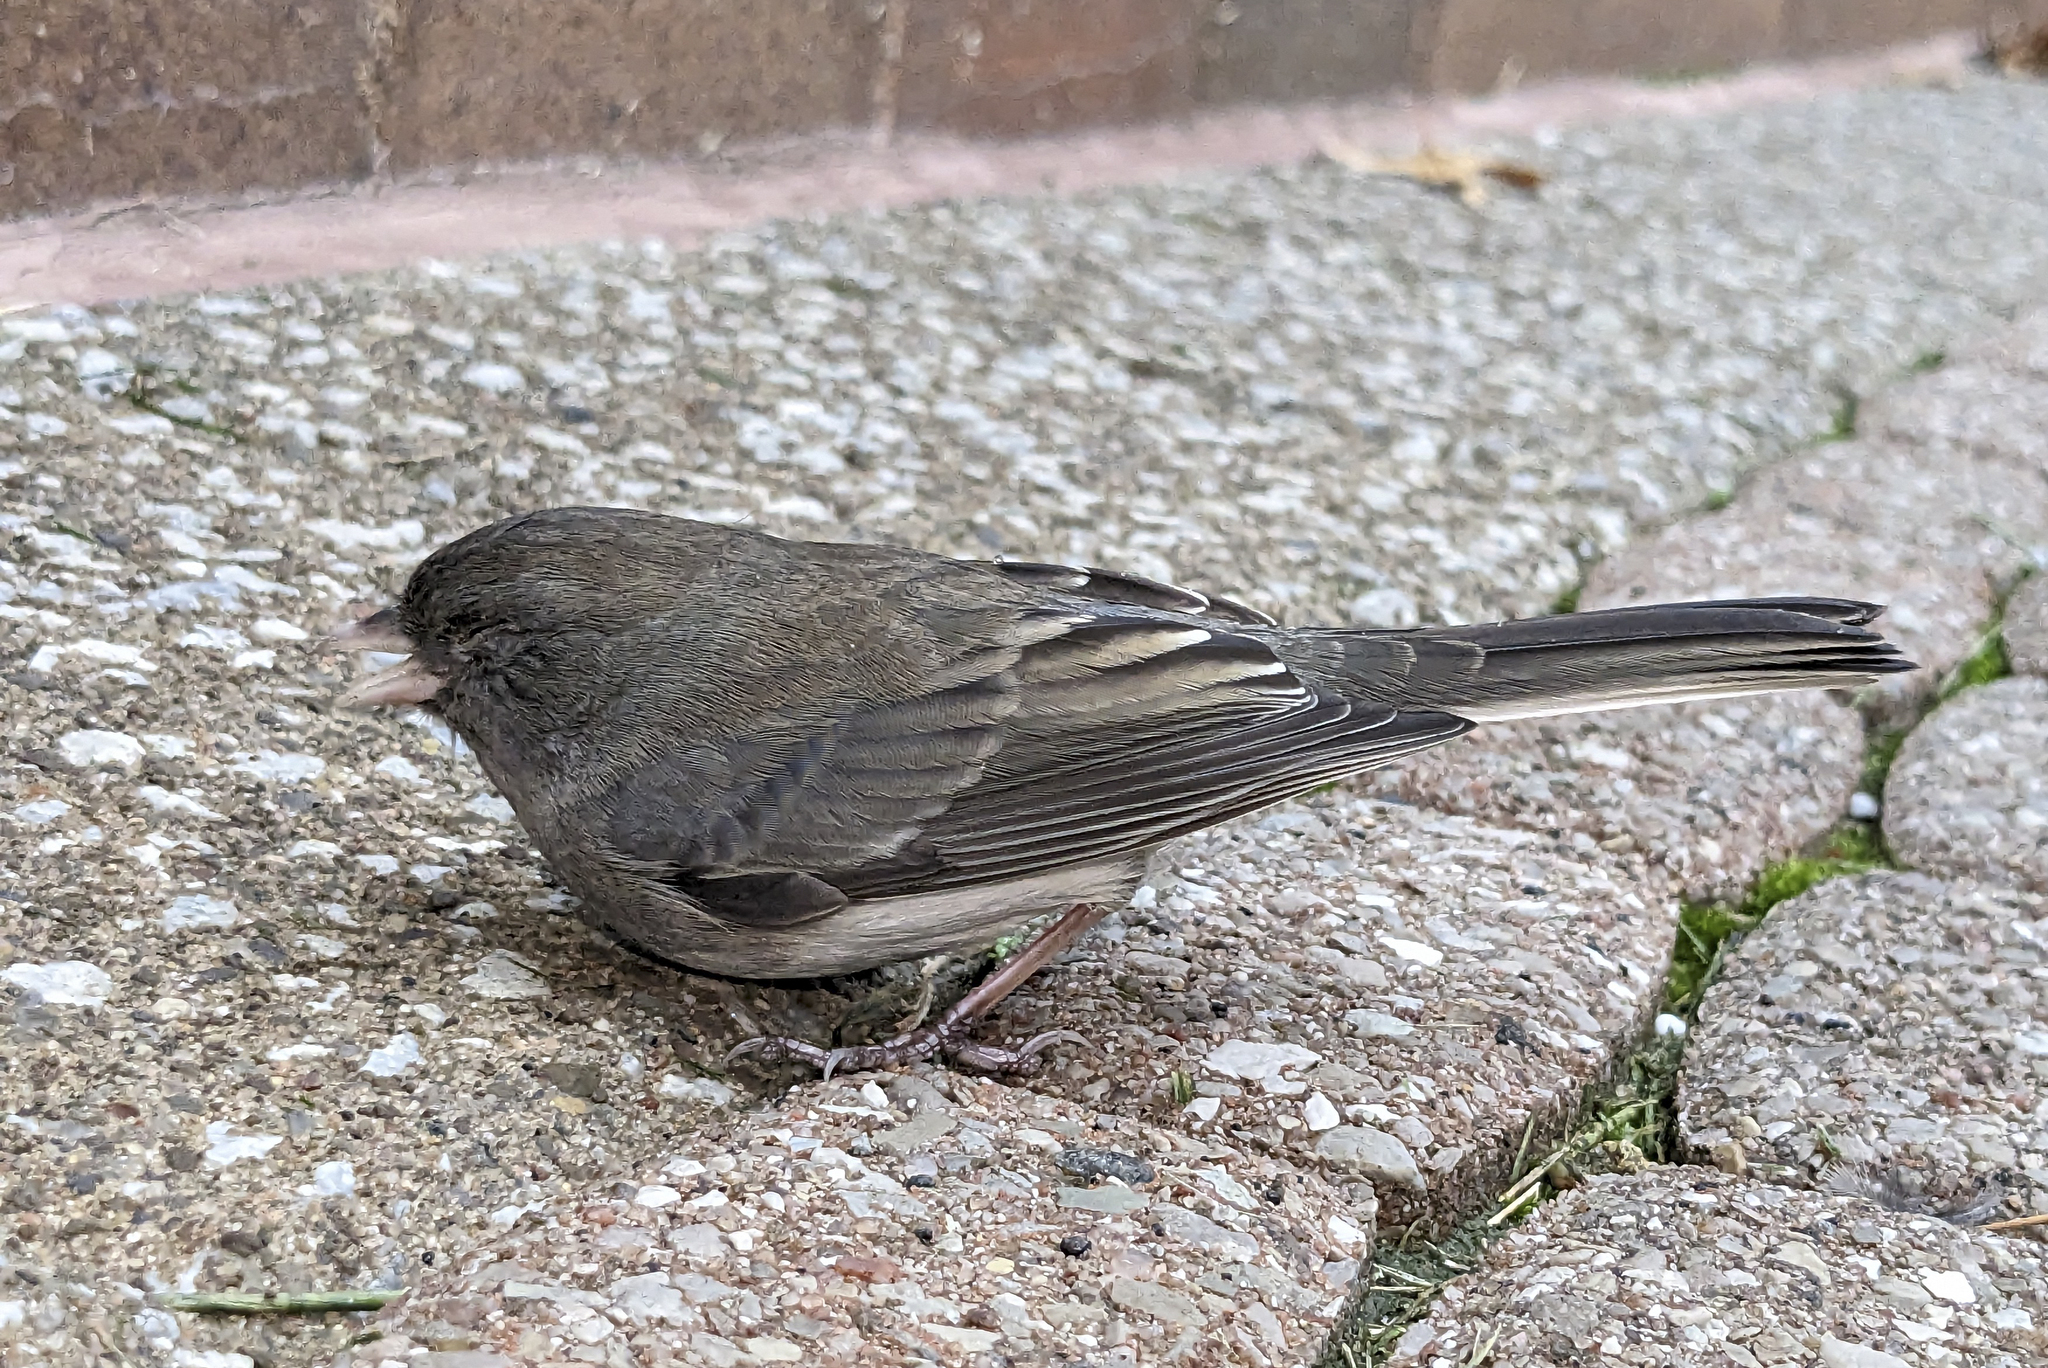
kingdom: Animalia
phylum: Chordata
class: Aves
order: Passeriformes
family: Passerellidae
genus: Junco
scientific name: Junco hyemalis
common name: Dark-eyed junco
